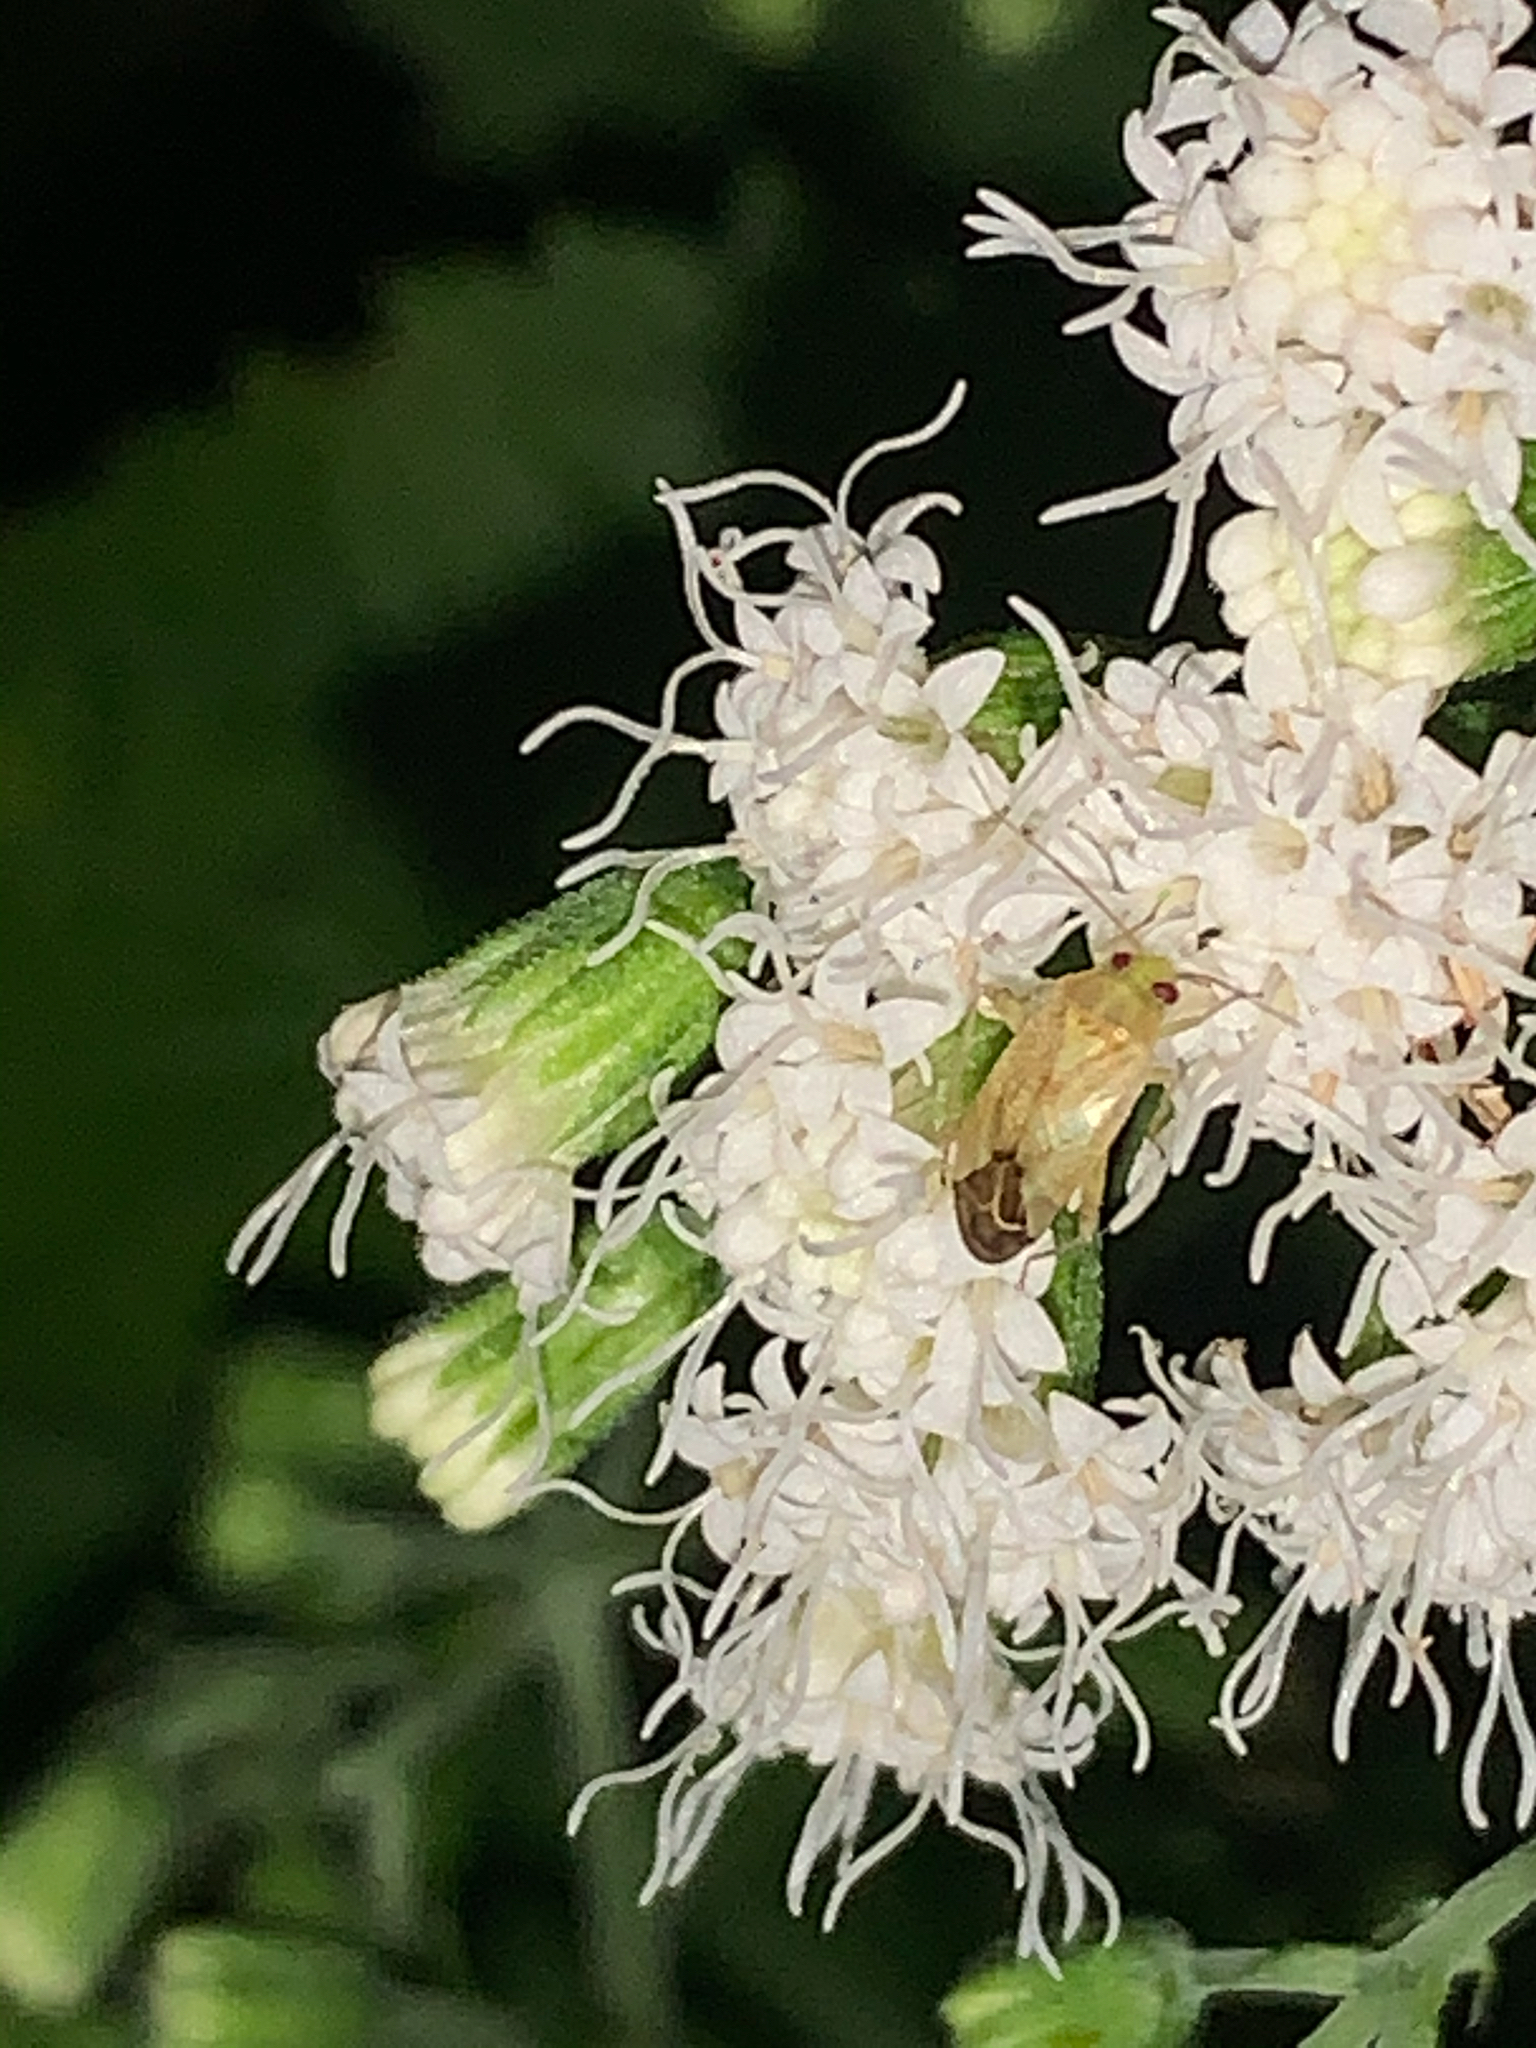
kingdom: Animalia
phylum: Arthropoda
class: Insecta
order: Hemiptera
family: Miridae
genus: Taylorilygus
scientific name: Taylorilygus apicalis
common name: Plant bug
